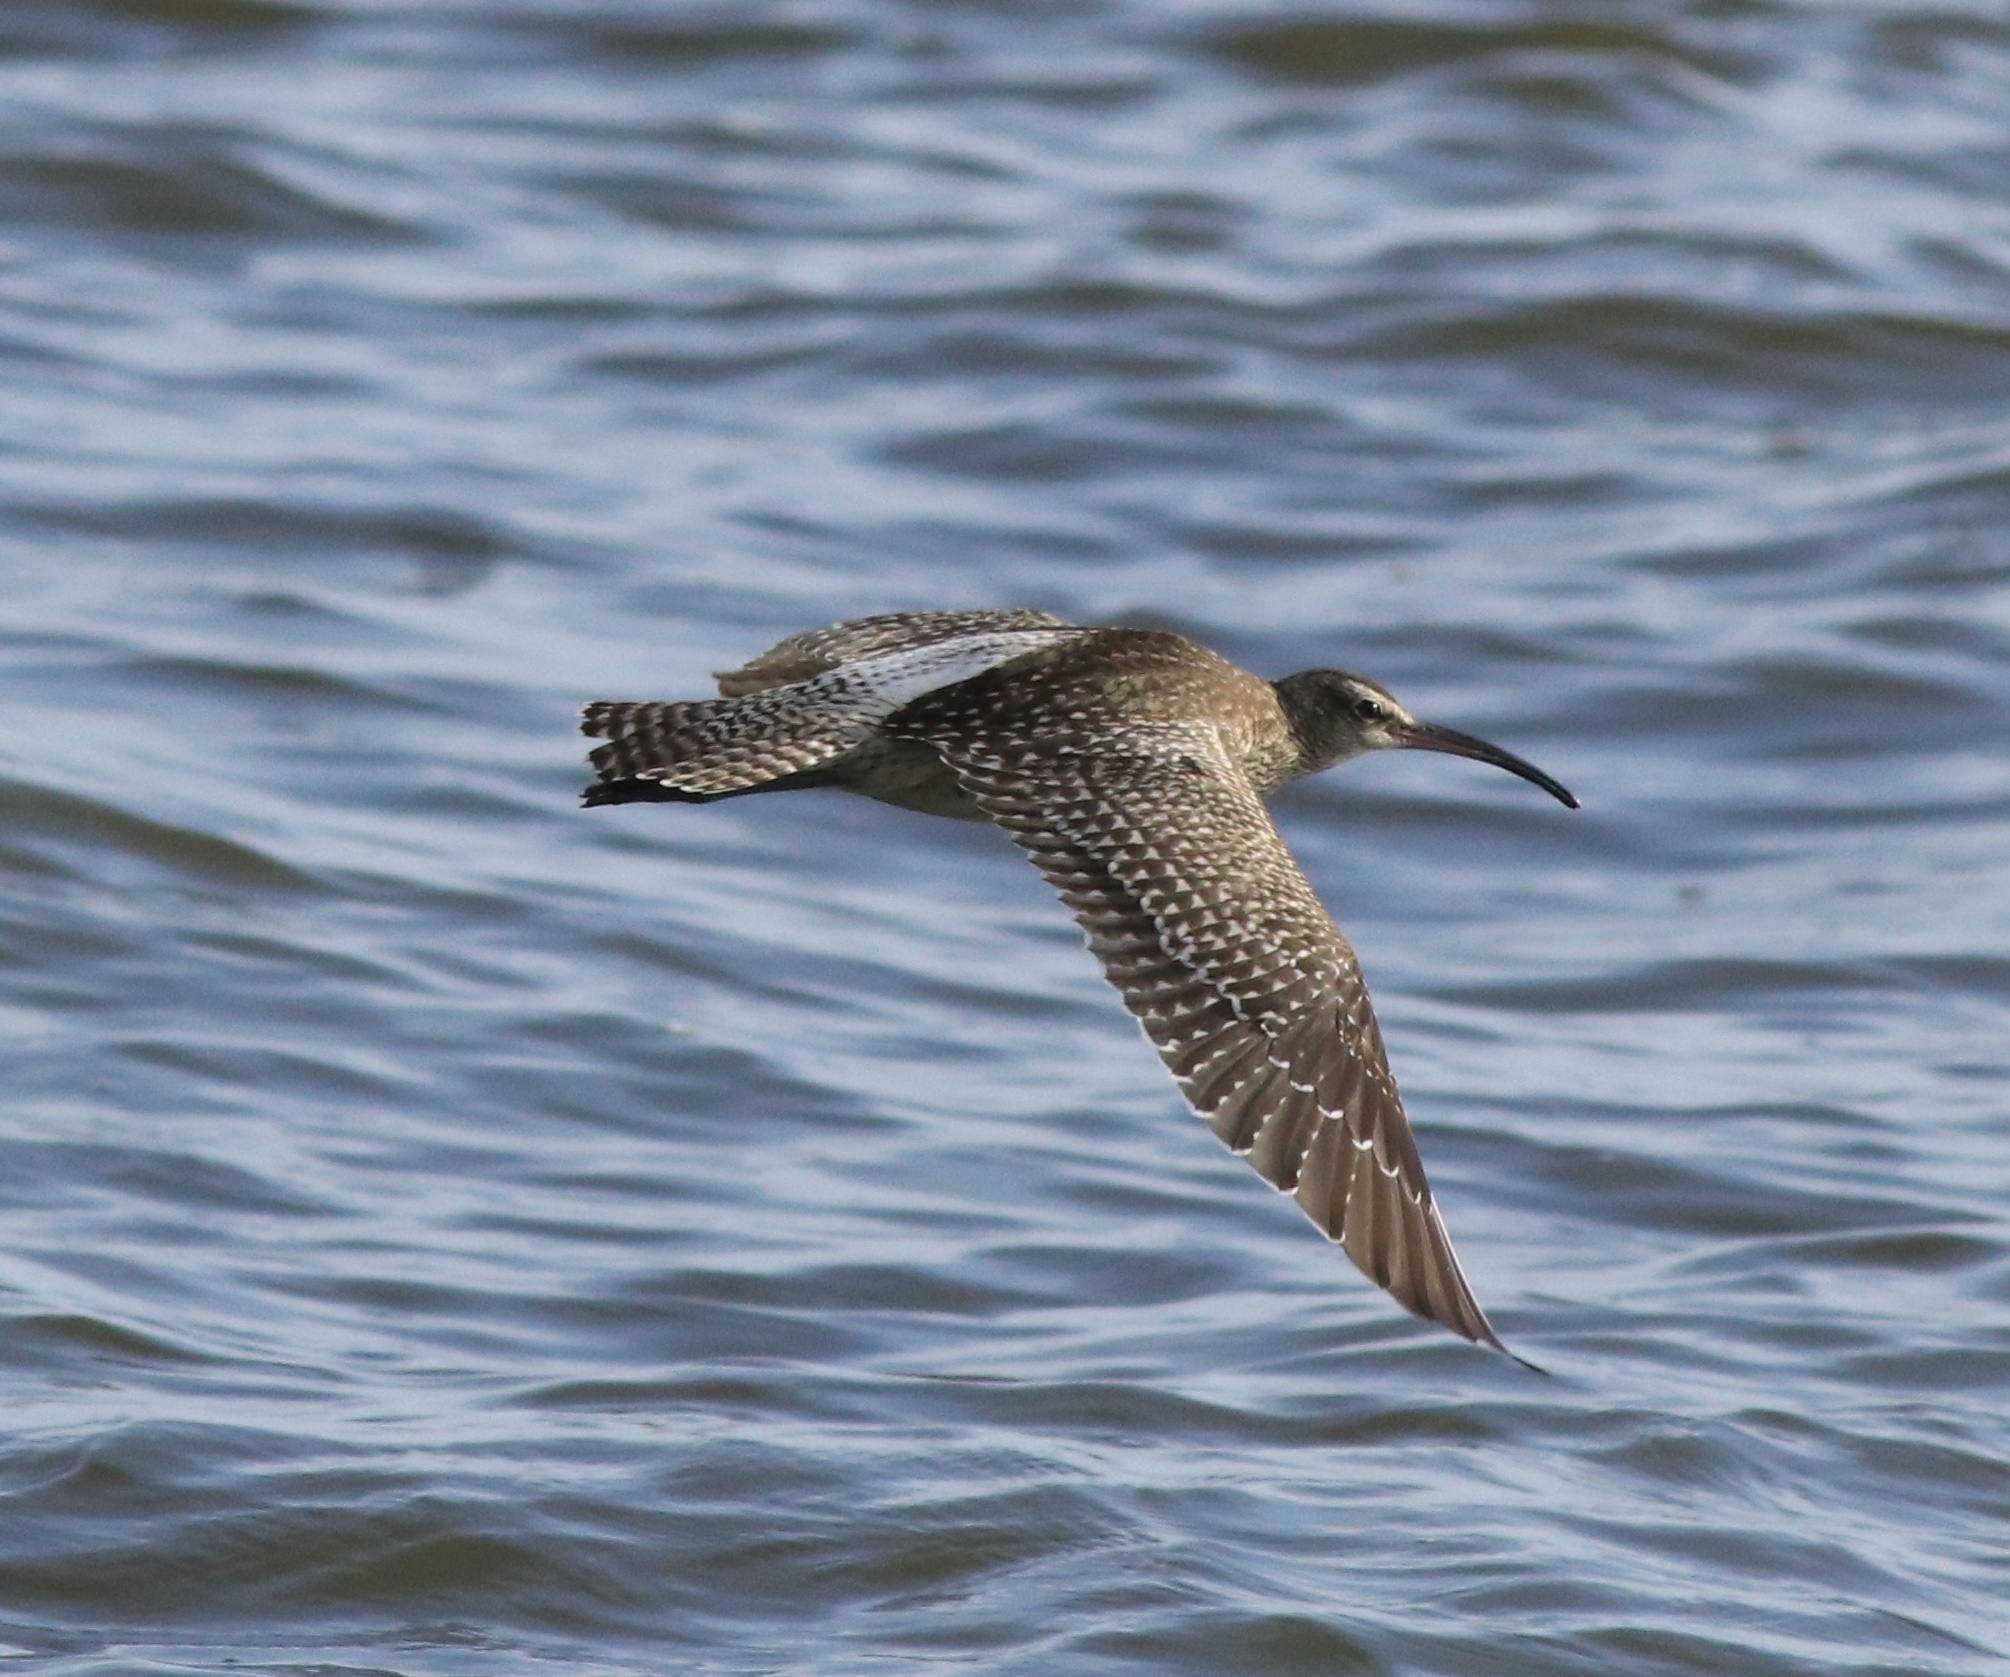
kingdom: Animalia
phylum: Chordata
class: Aves
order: Charadriiformes
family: Scolopacidae
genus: Numenius
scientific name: Numenius phaeopus
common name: Whimbrel
